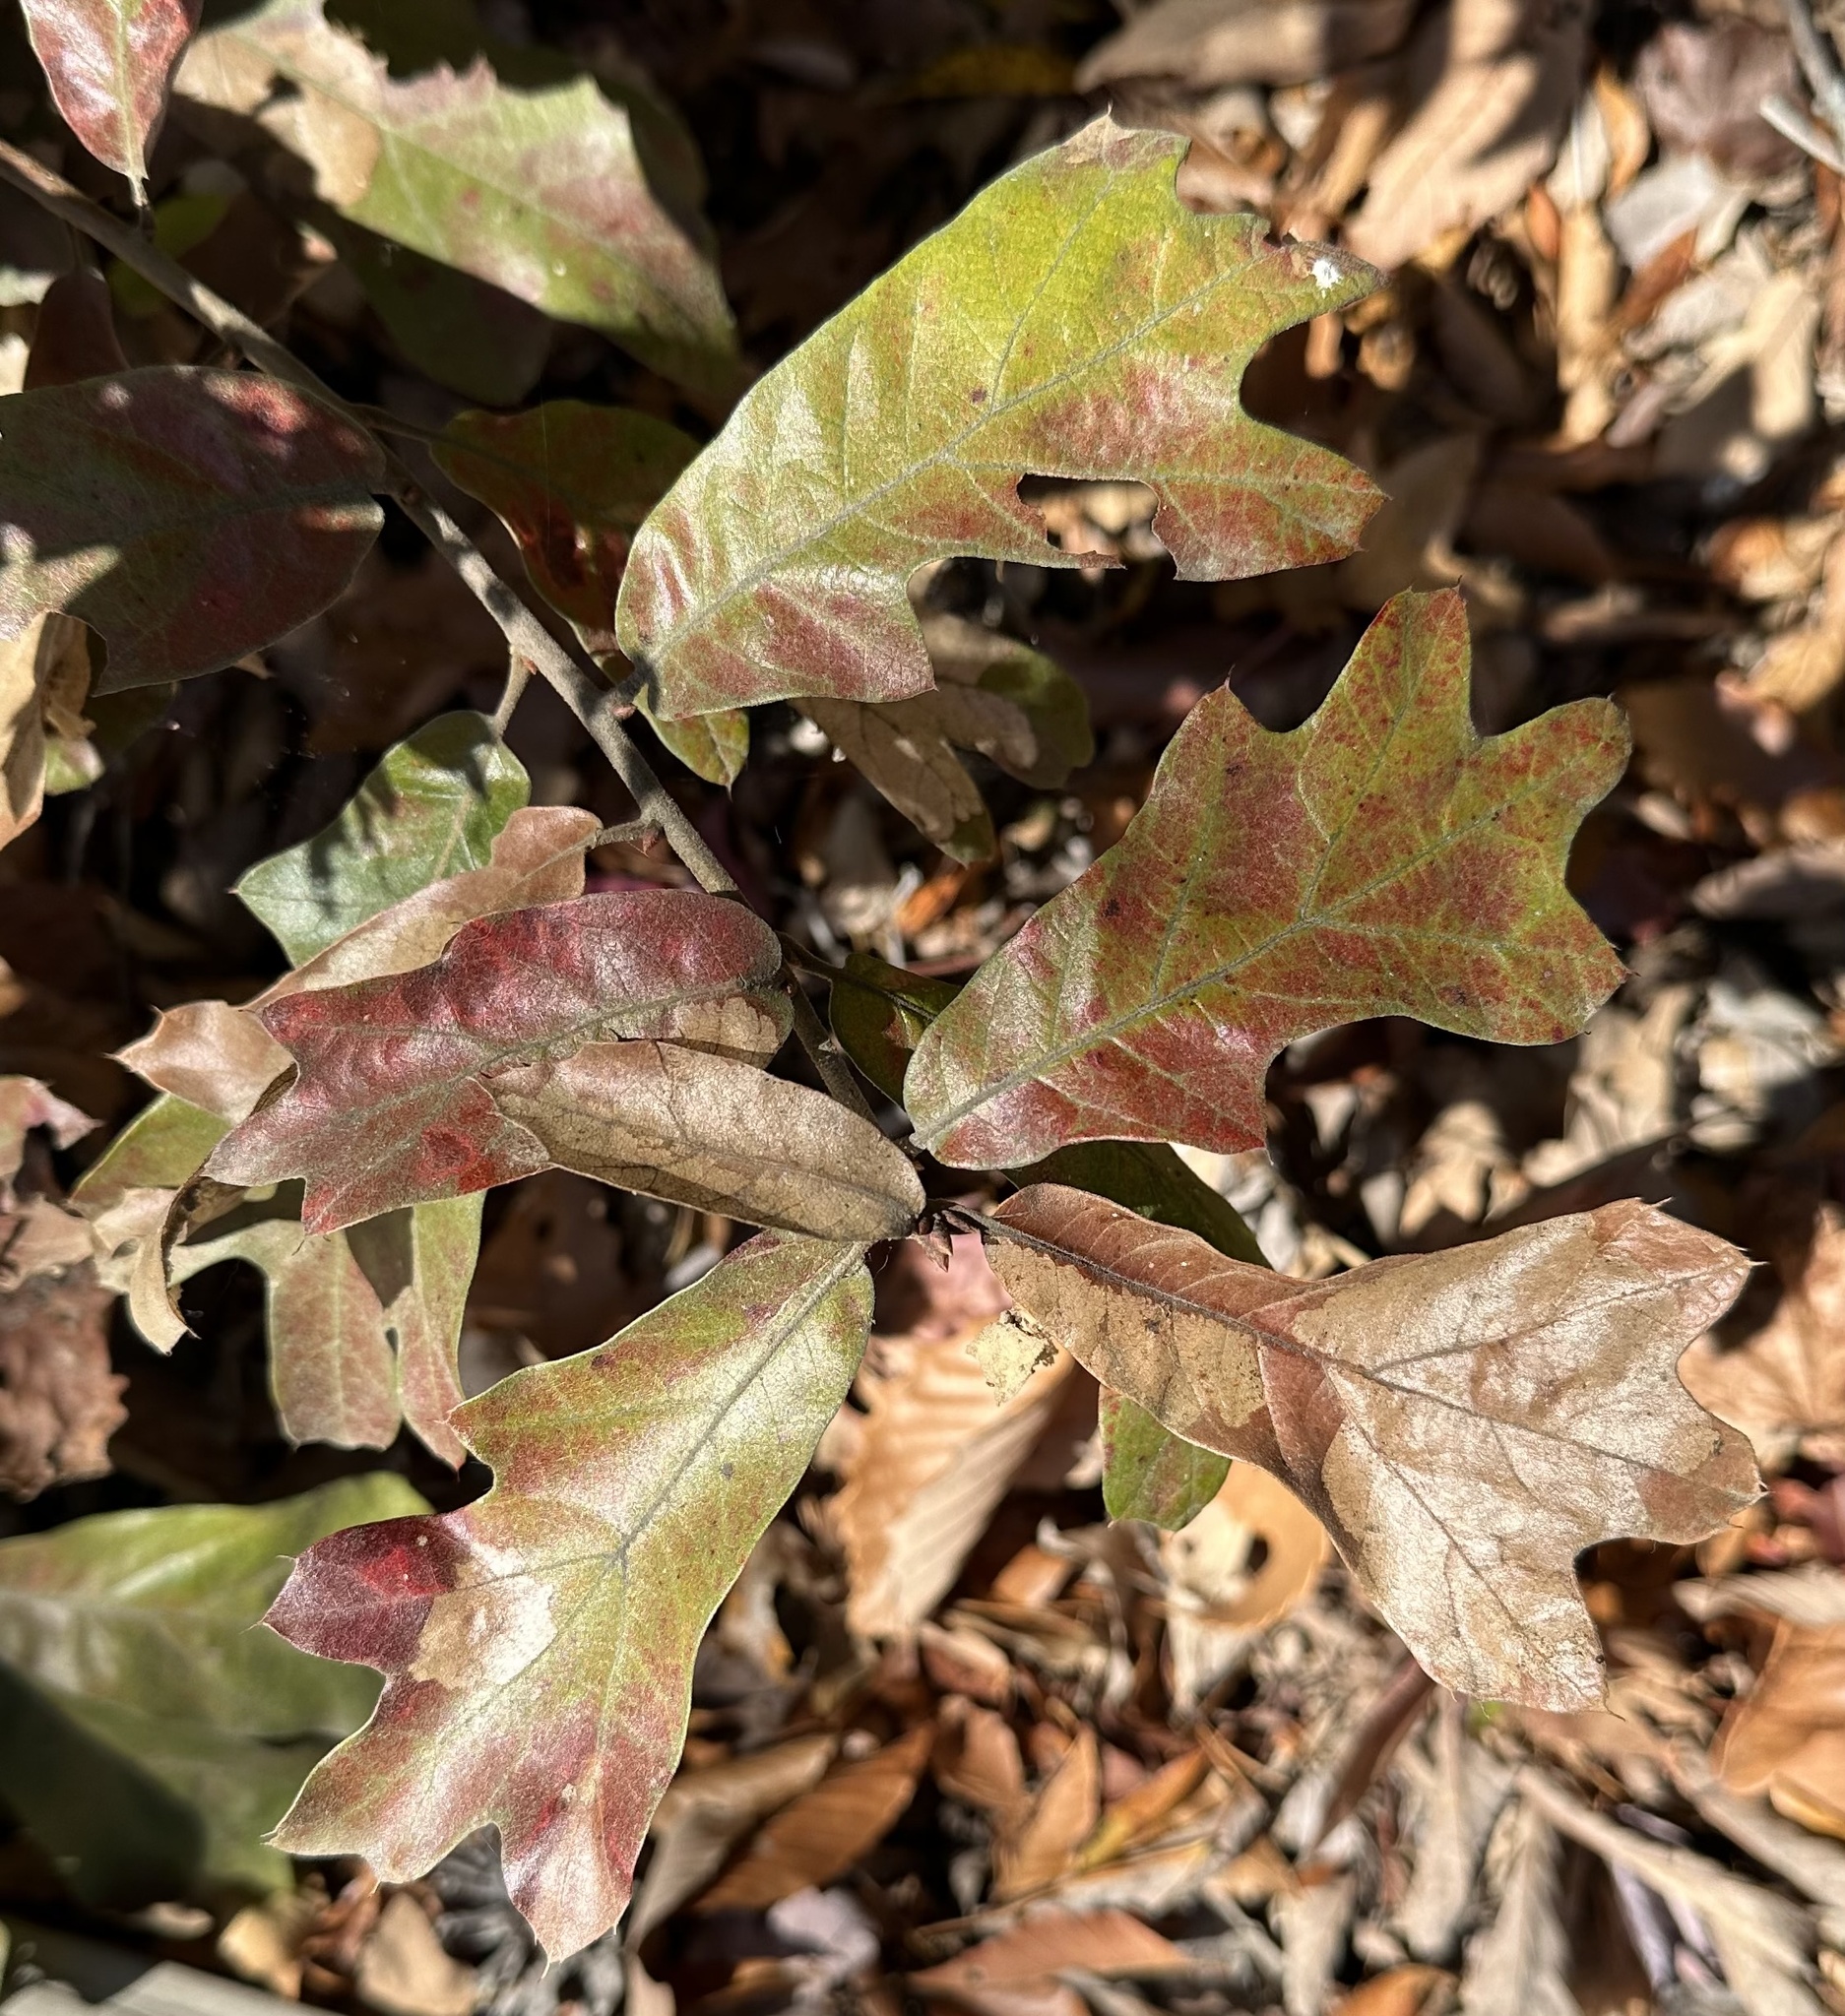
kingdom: Plantae
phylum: Tracheophyta
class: Magnoliopsida
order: Fagales
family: Fagaceae
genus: Quercus
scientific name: Quercus falcata
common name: Southern red oak
